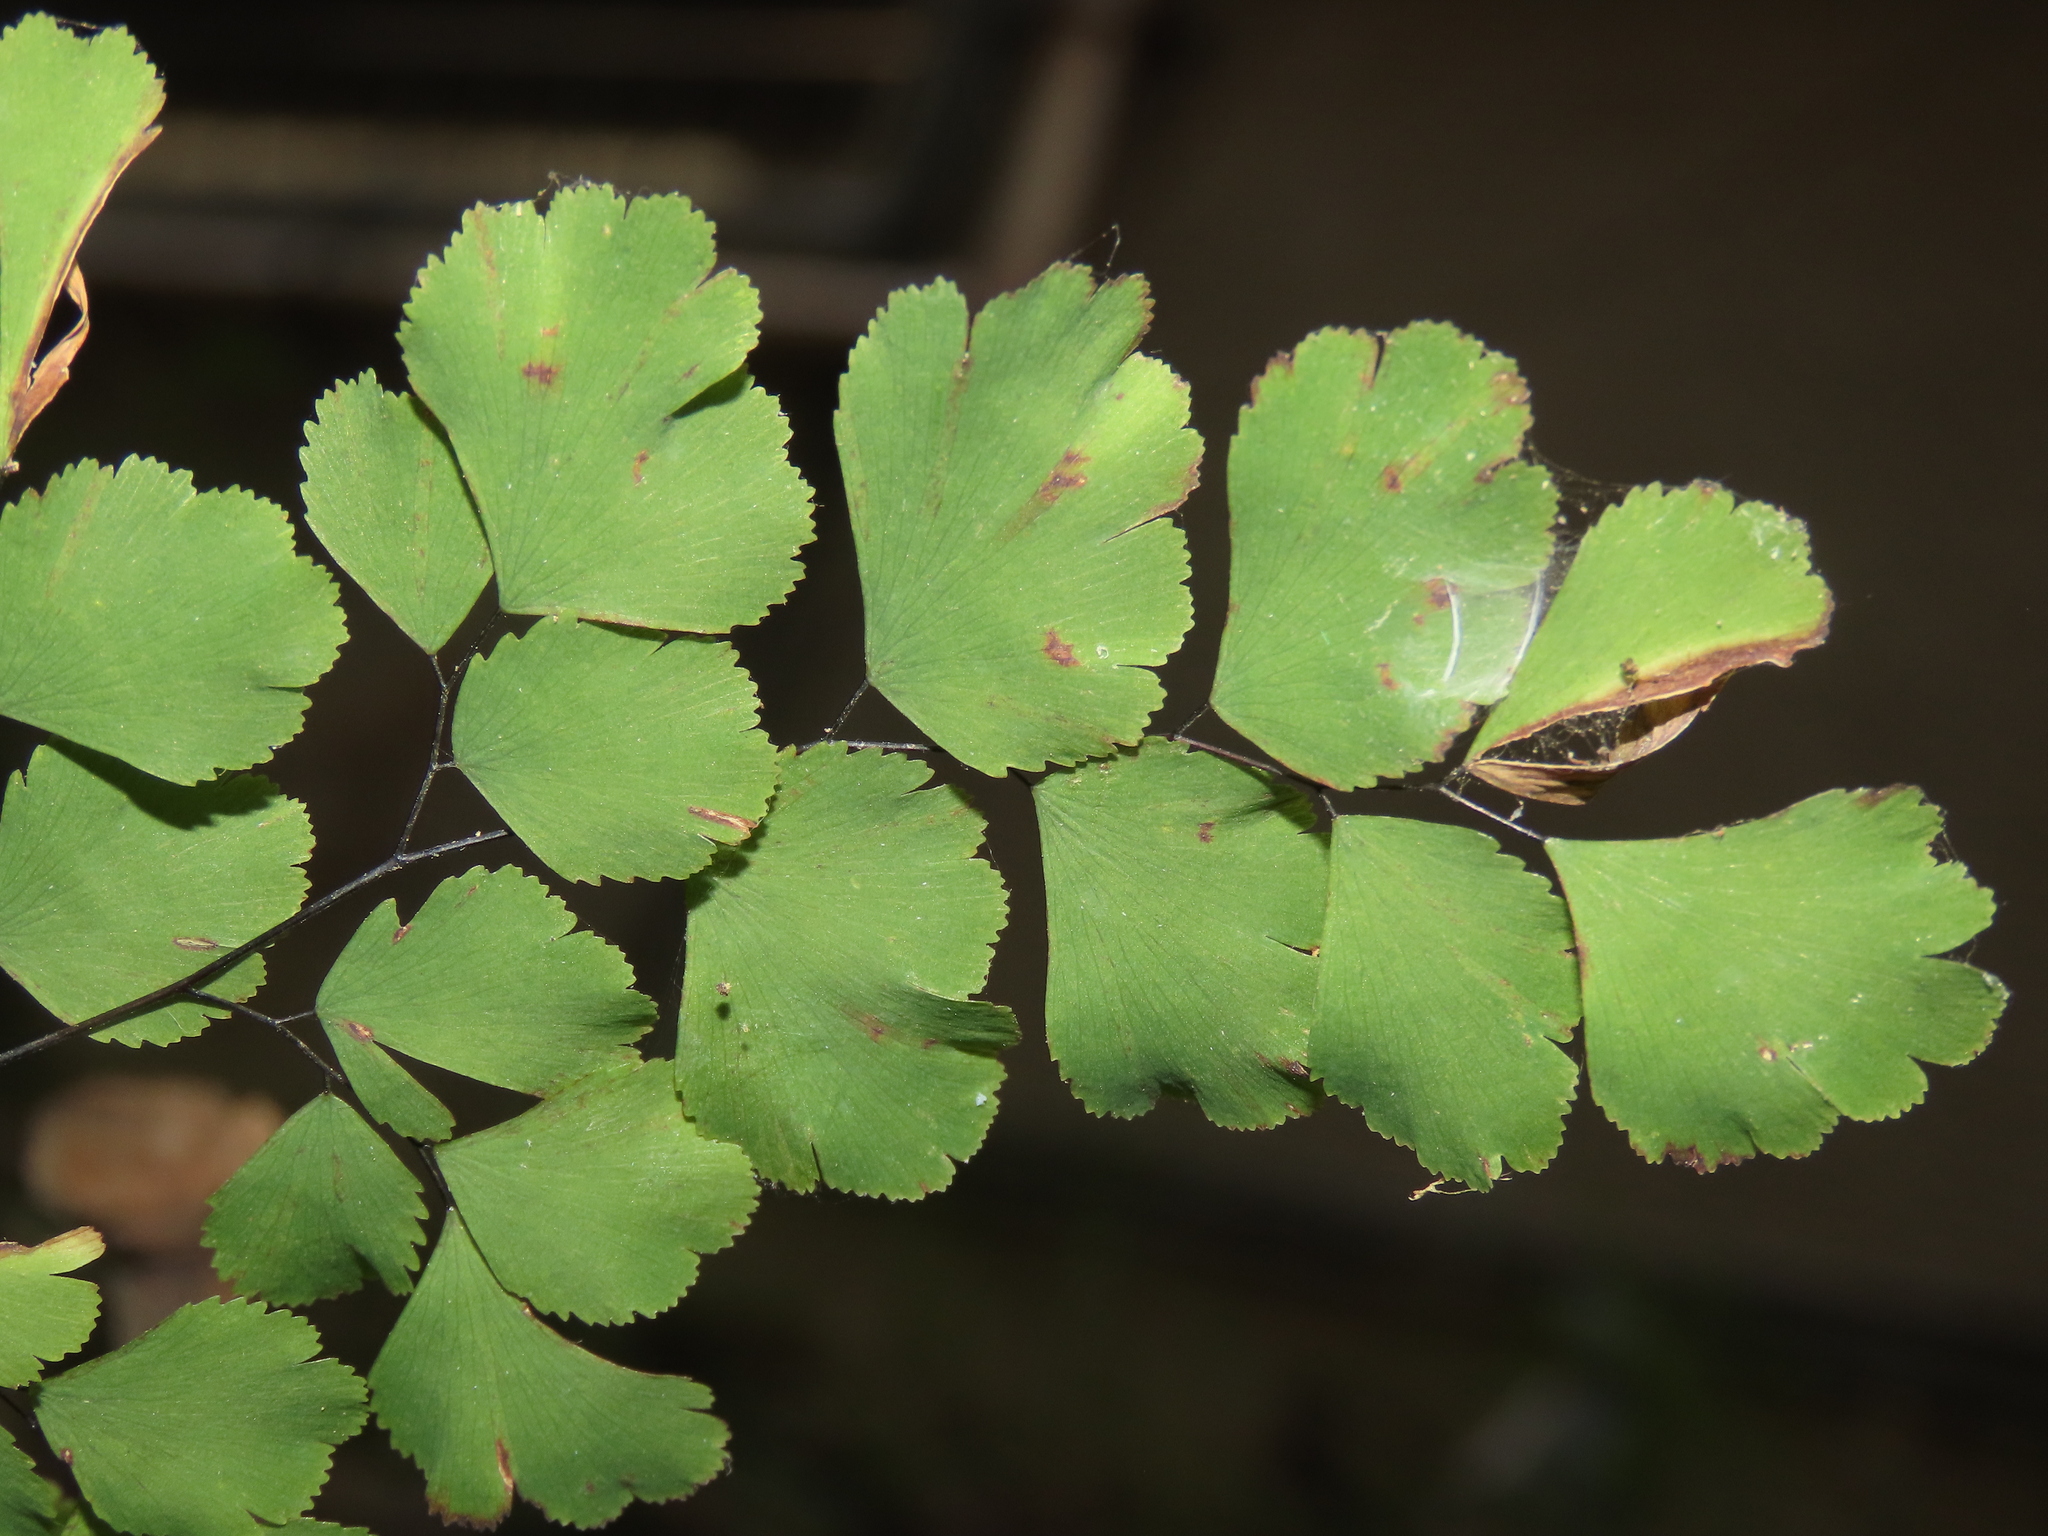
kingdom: Plantae
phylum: Tracheophyta
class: Polypodiopsida
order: Polypodiales
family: Pteridaceae
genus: Adiantum
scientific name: Adiantum tenerum
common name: Fan maidenhair
